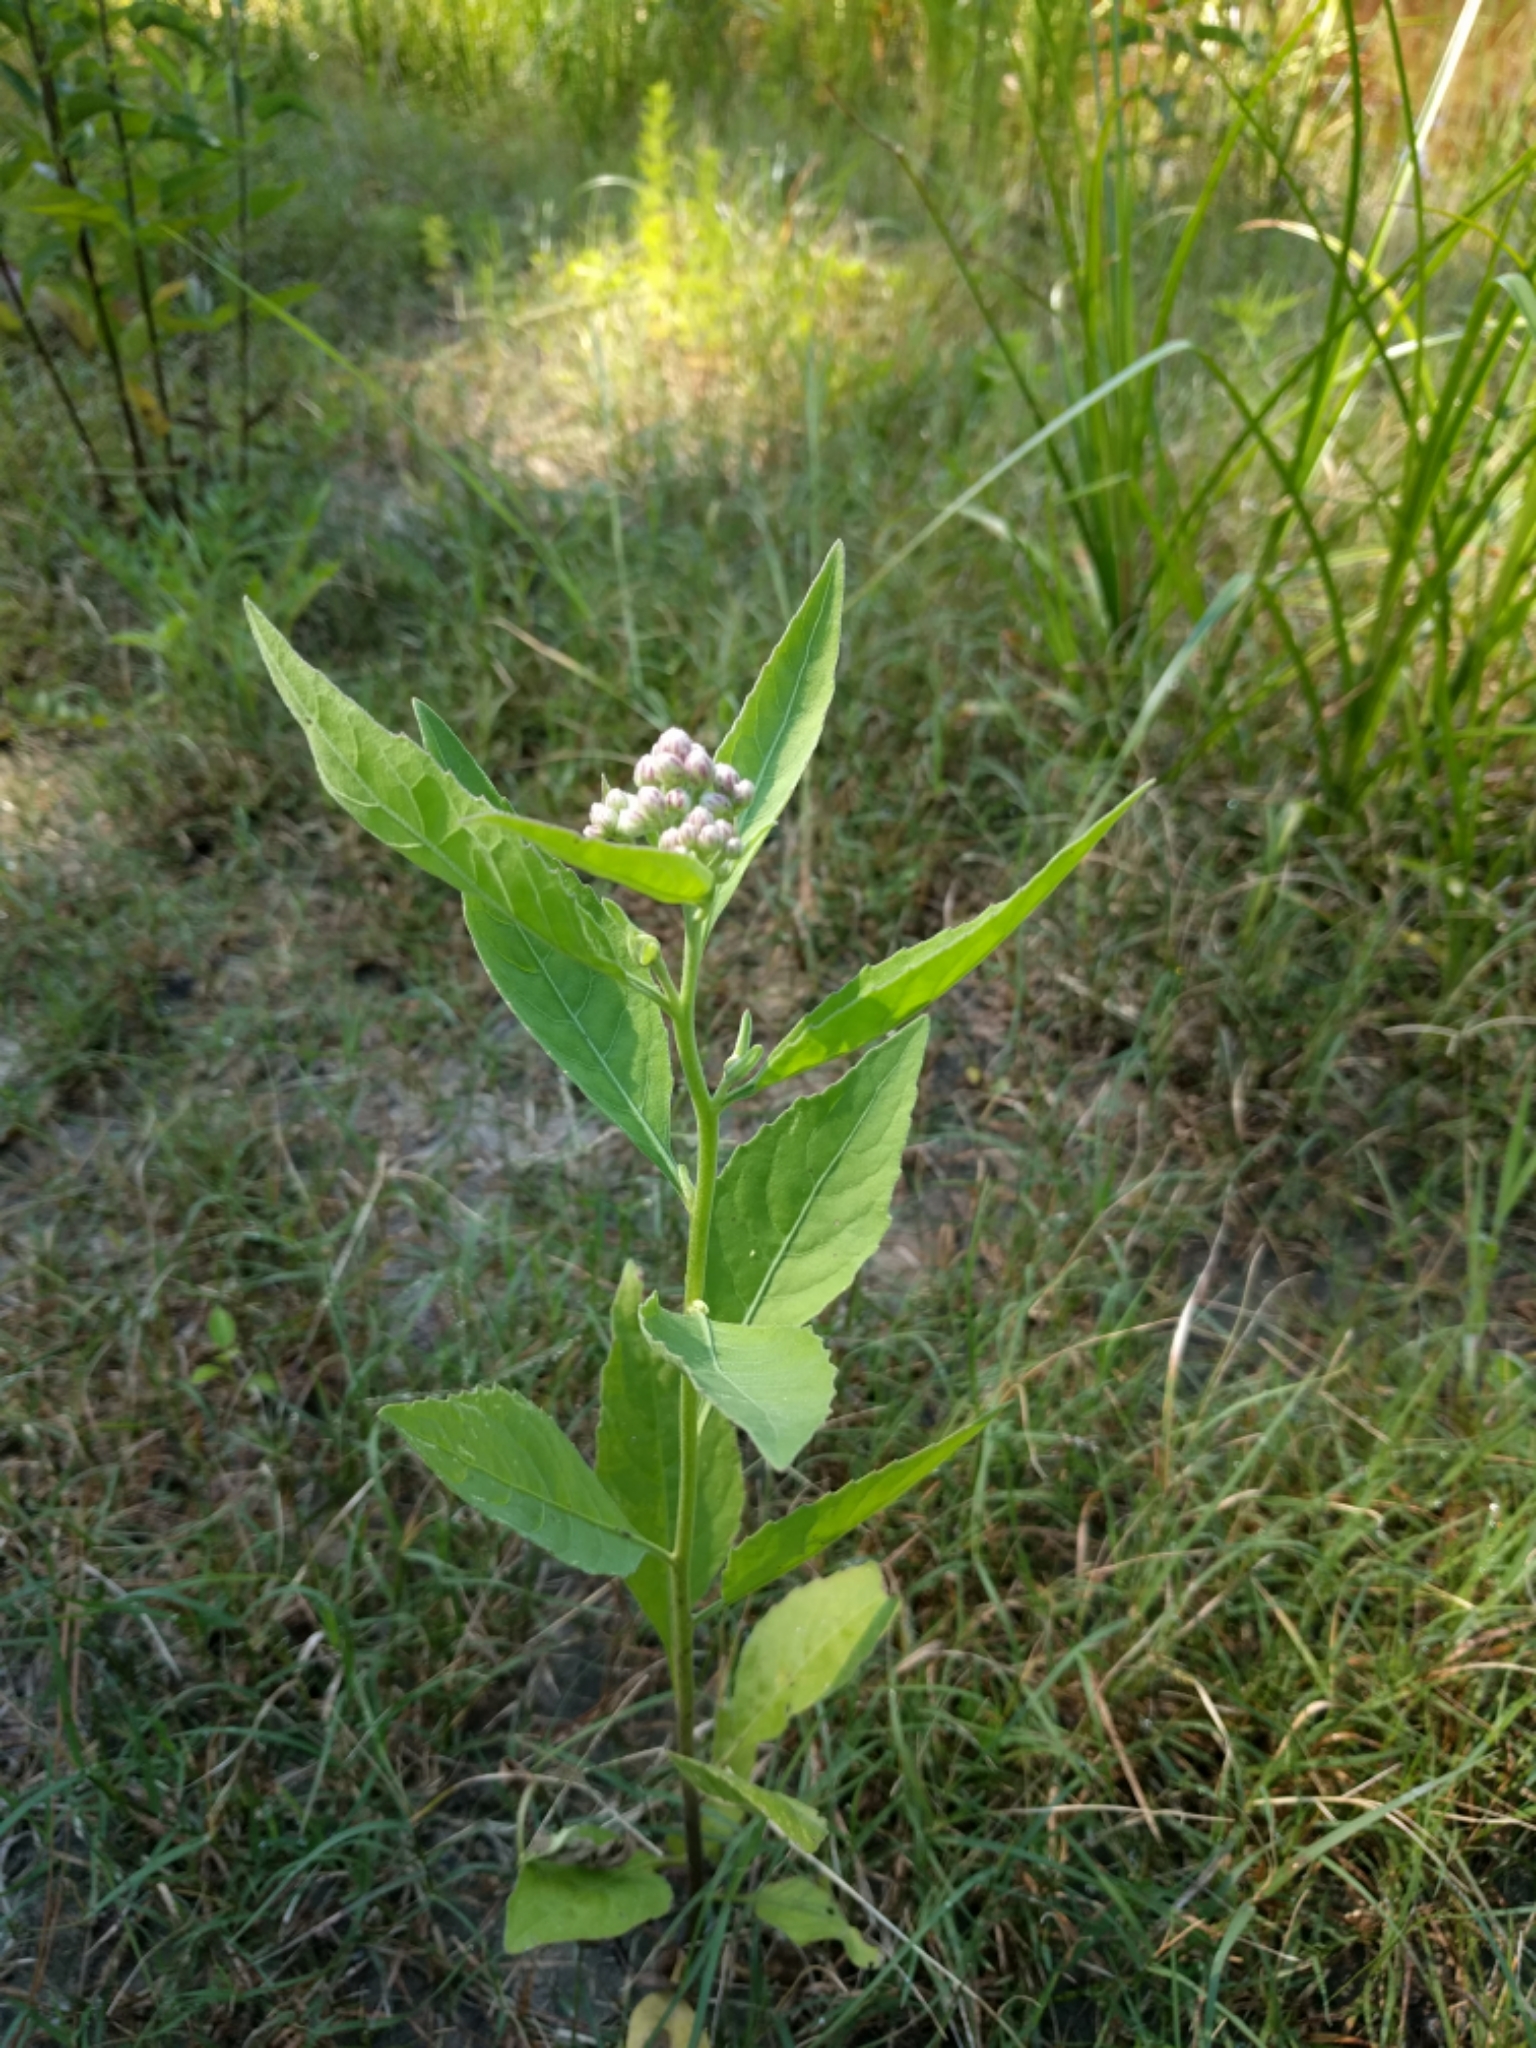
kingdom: Plantae
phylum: Tracheophyta
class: Magnoliopsida
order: Asterales
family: Asteraceae
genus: Pluchea
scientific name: Pluchea odorata
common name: Saltmarsh fleabane
